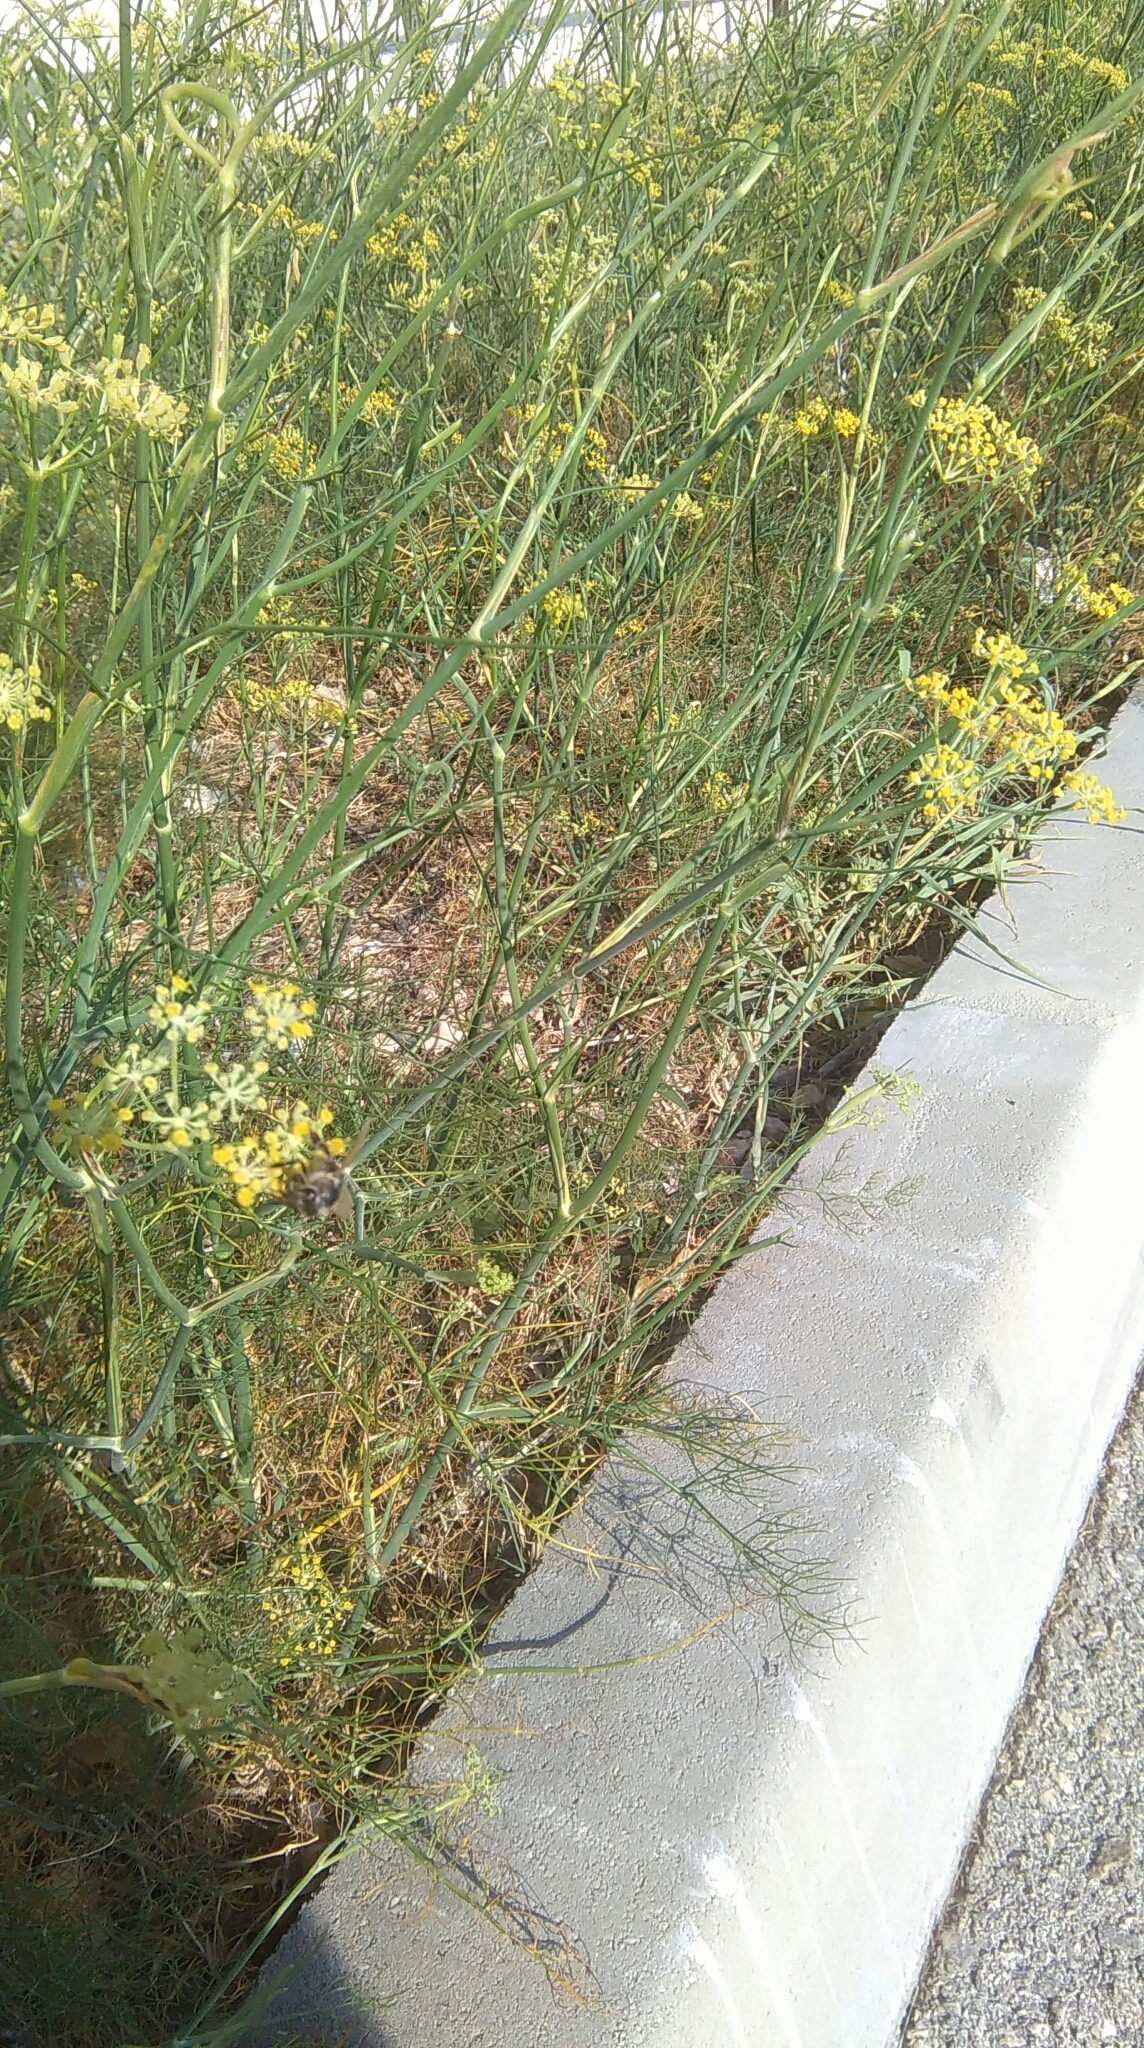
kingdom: Plantae
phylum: Tracheophyta
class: Magnoliopsida
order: Apiales
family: Apiaceae
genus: Foeniculum
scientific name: Foeniculum vulgare
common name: Fennel
